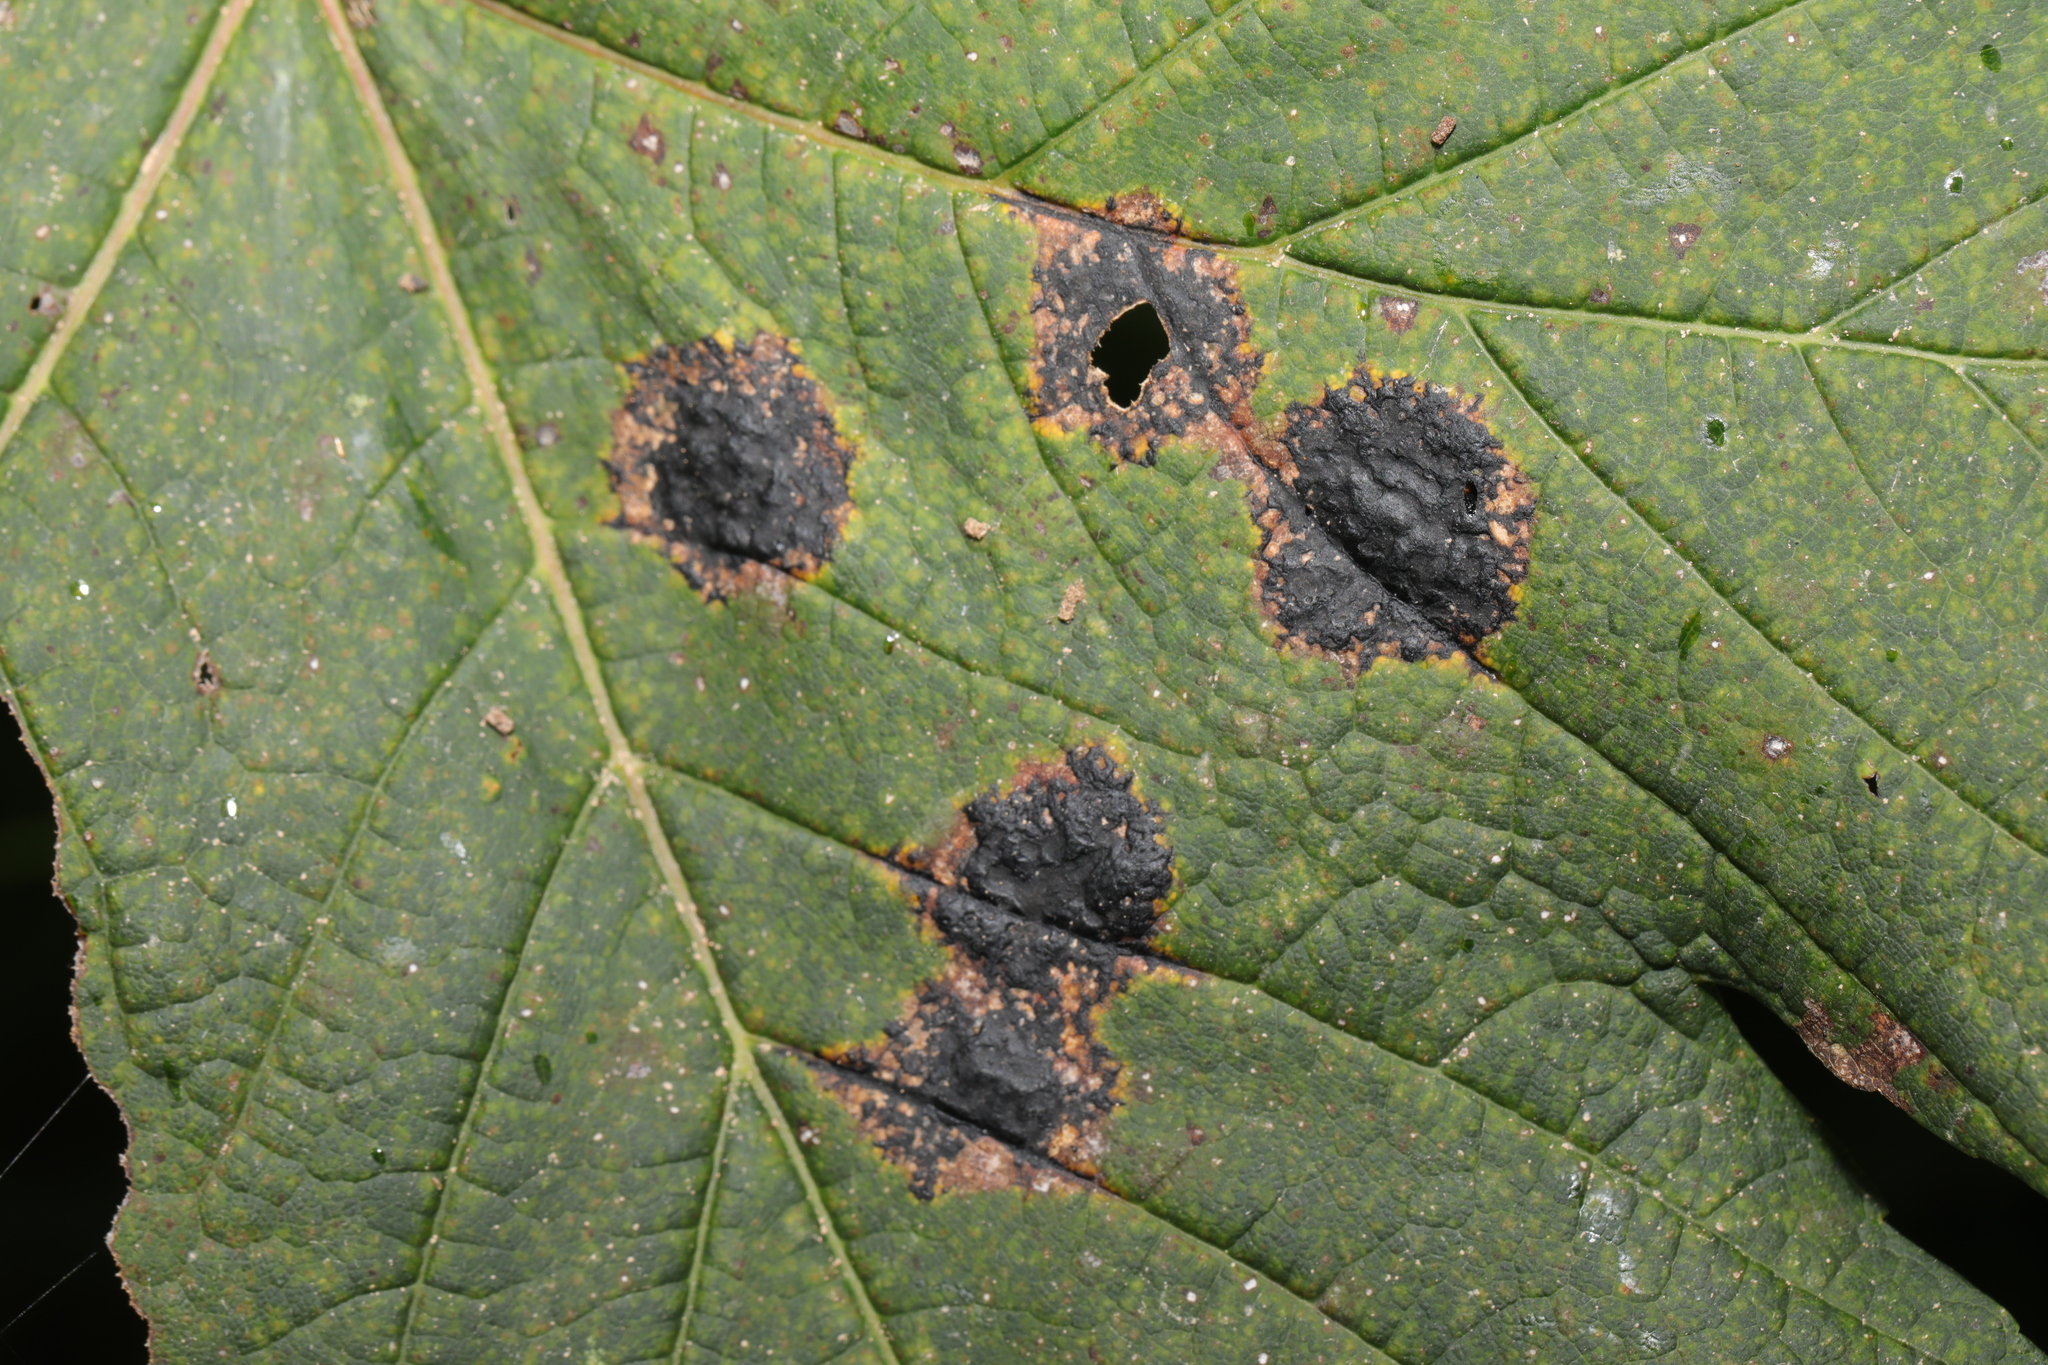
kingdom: Fungi
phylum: Ascomycota
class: Leotiomycetes
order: Rhytismatales
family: Rhytismataceae
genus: Rhytisma
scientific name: Rhytisma acerinum
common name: European tar spot
